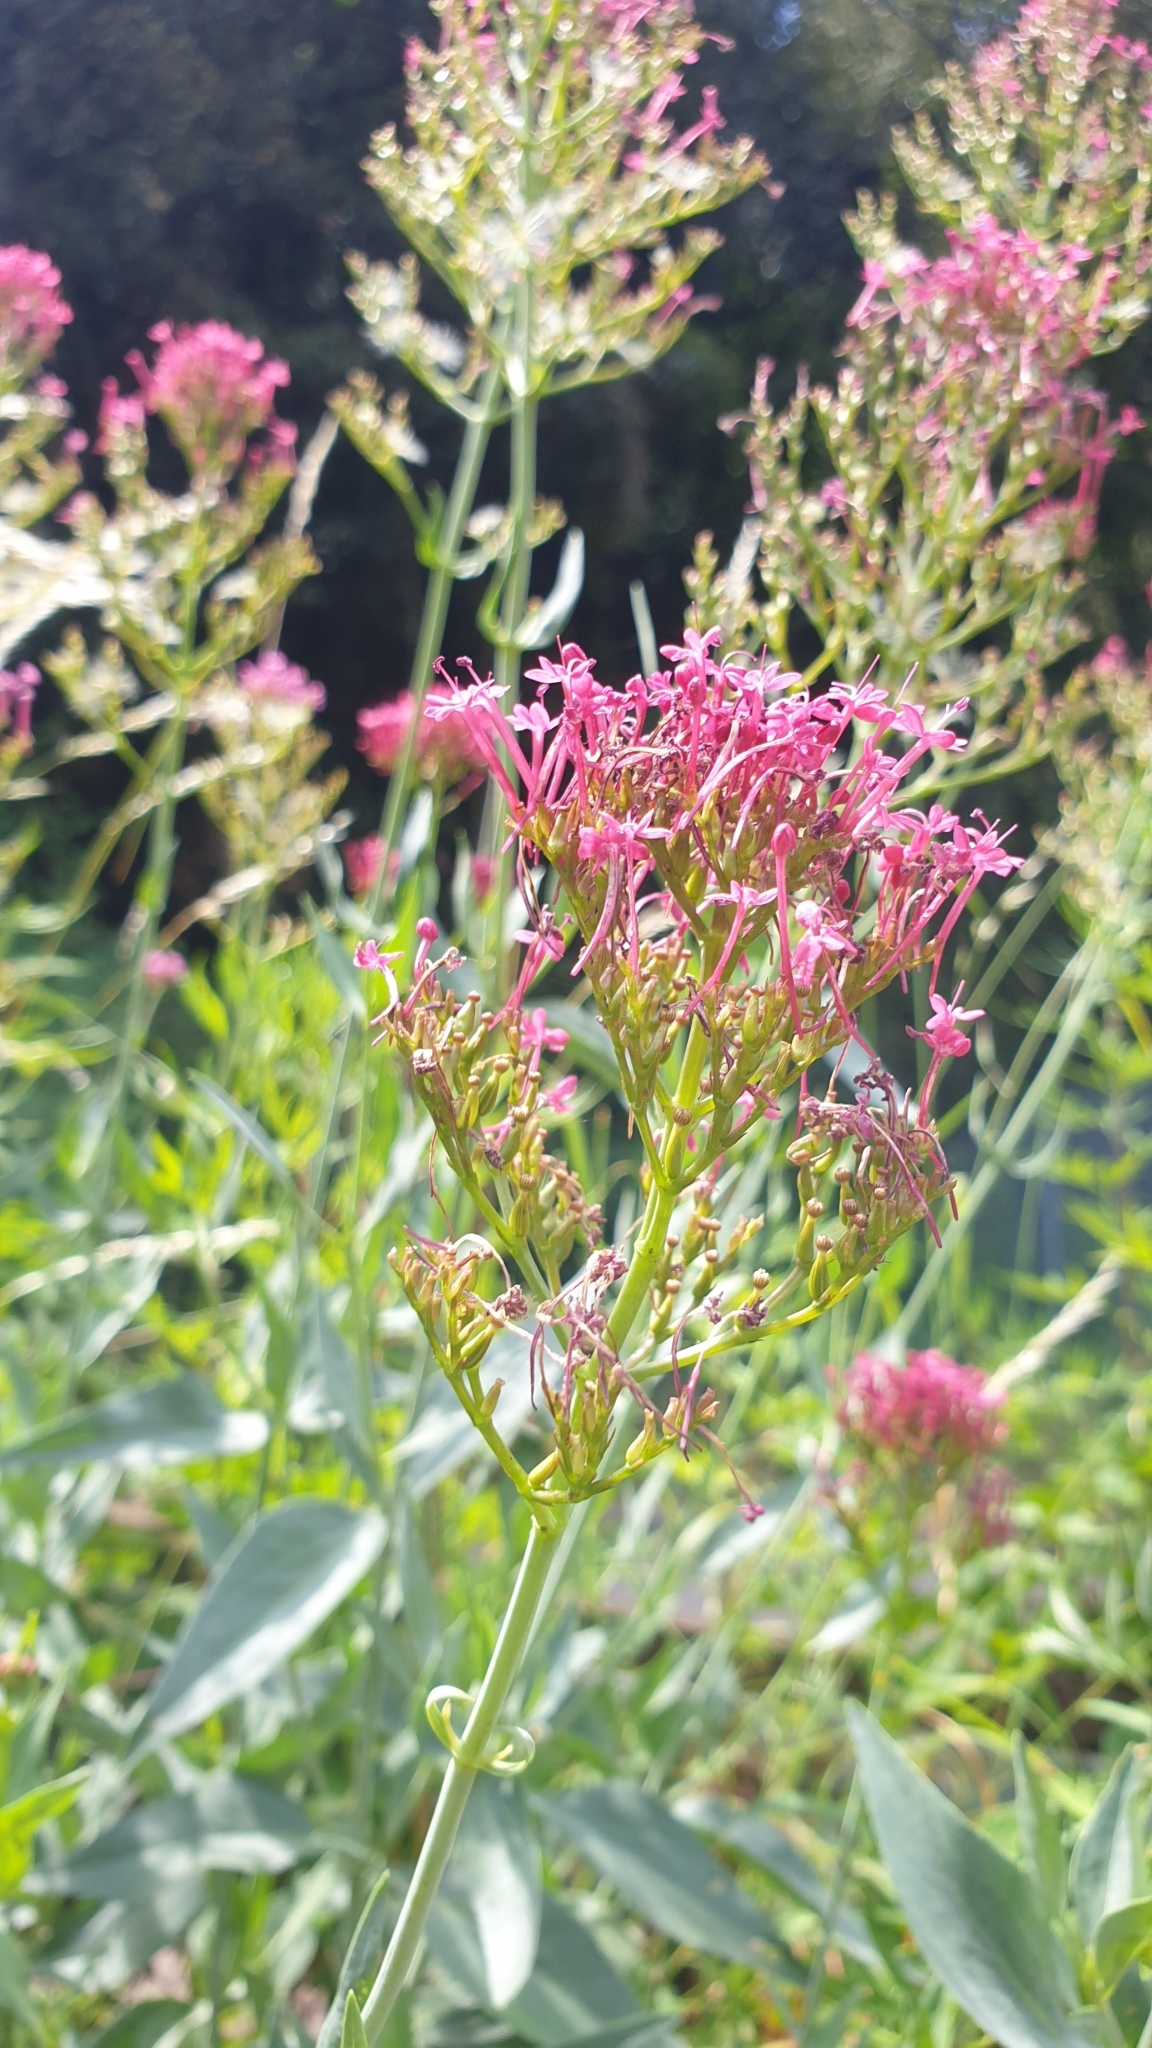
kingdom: Plantae
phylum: Tracheophyta
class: Magnoliopsida
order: Dipsacales
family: Caprifoliaceae
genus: Centranthus
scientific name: Centranthus ruber
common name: Red valerian
